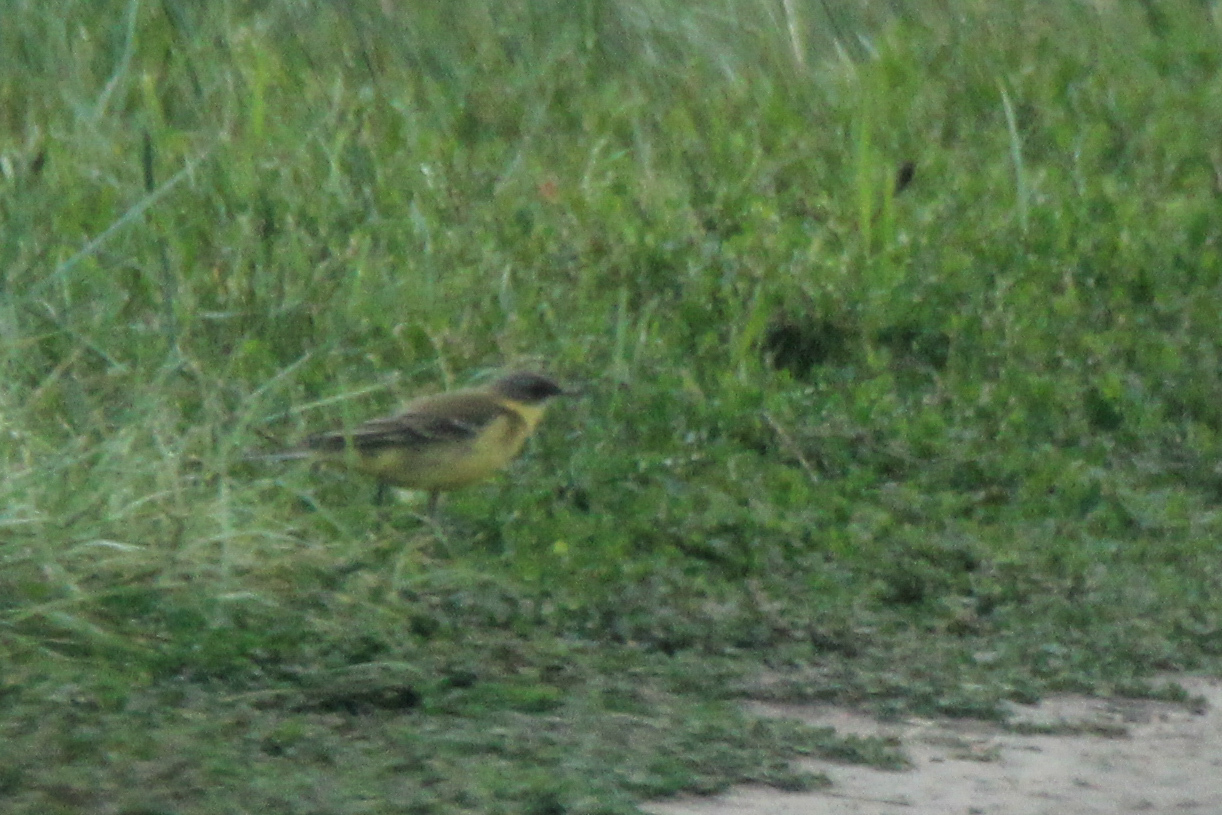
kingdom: Animalia
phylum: Chordata
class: Aves
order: Passeriformes
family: Motacillidae
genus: Motacilla
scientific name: Motacilla flava
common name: Western yellow wagtail
